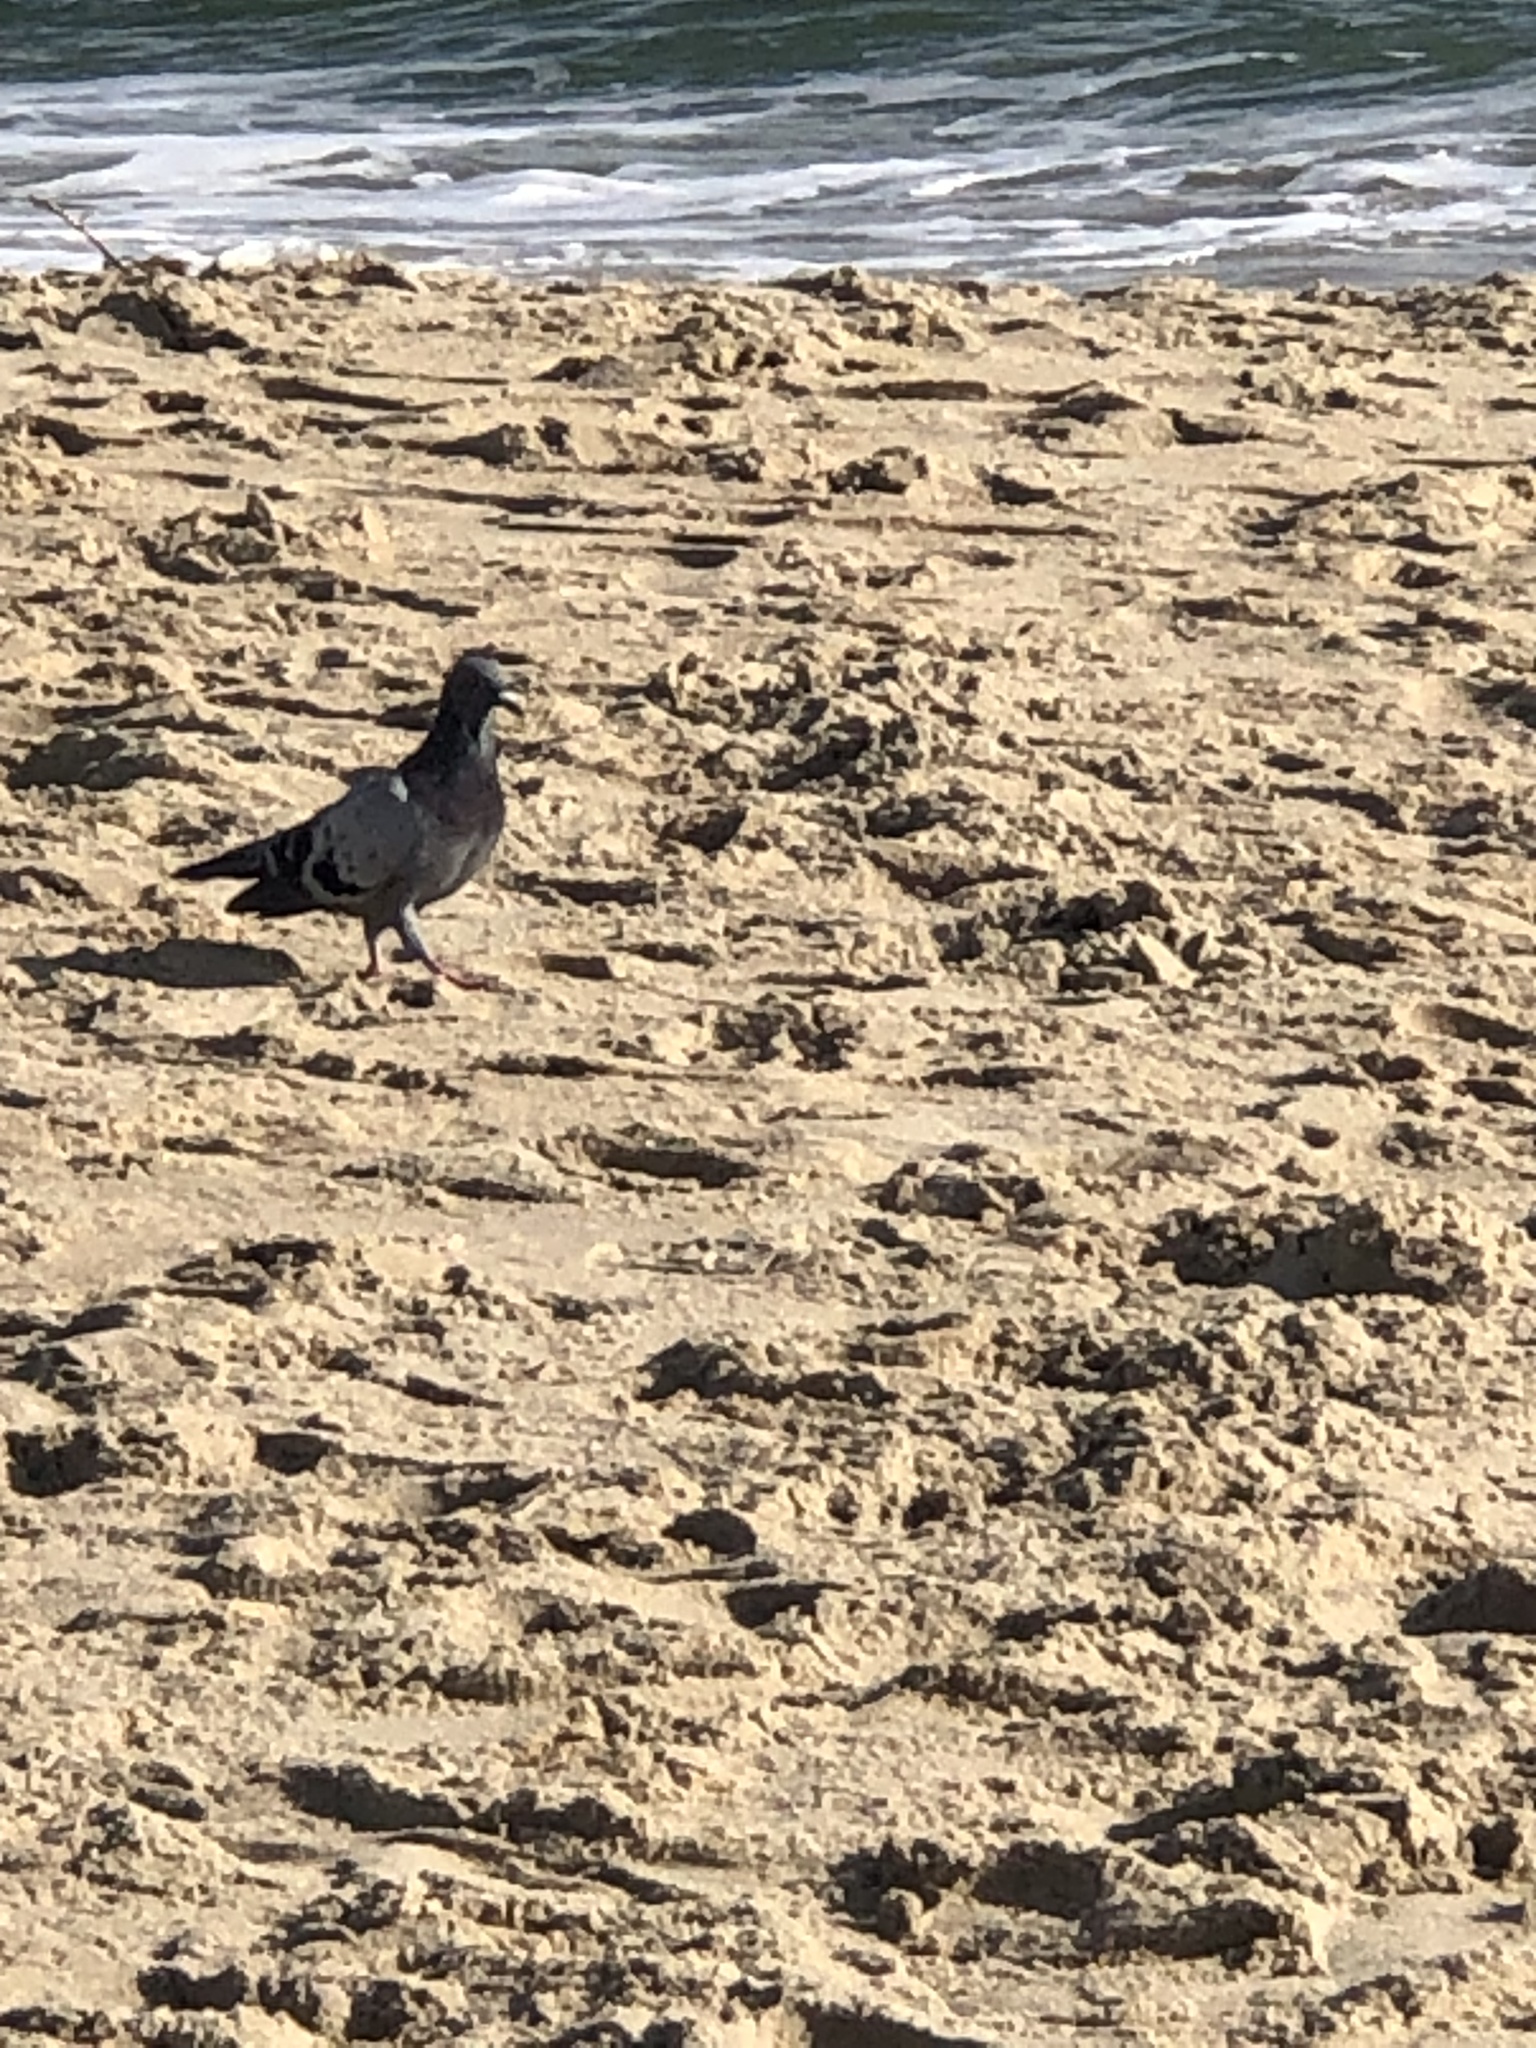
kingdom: Animalia
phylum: Chordata
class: Aves
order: Columbiformes
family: Columbidae
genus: Columba
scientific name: Columba livia
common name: Rock pigeon
